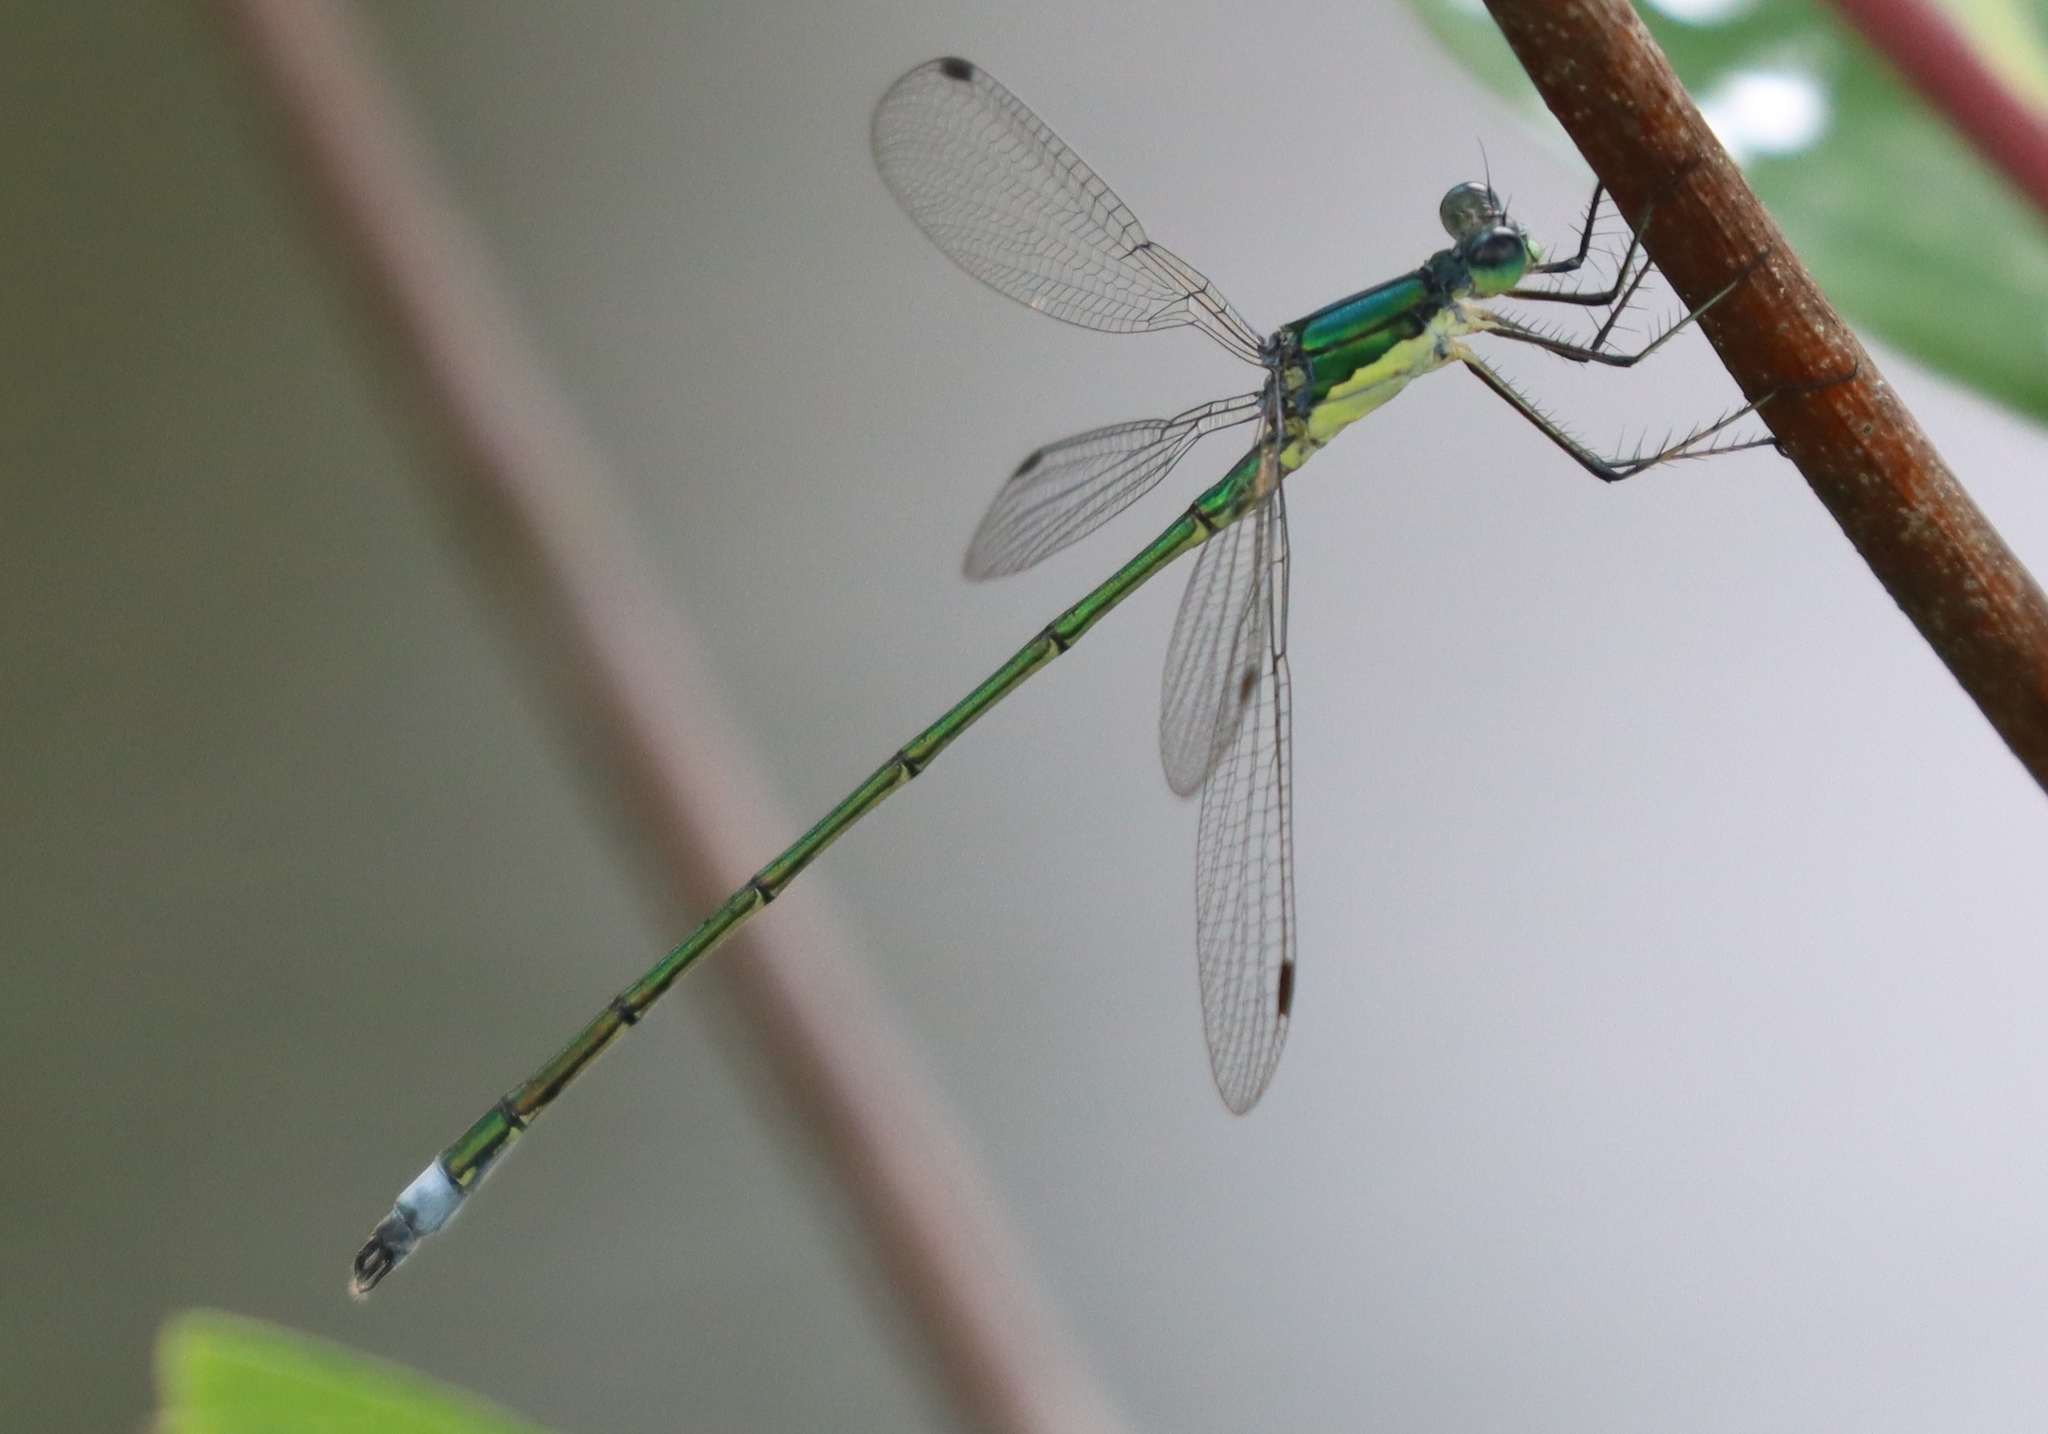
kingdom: Animalia
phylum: Arthropoda
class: Insecta
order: Odonata
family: Lestidae
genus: Lestes
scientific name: Lestes inaequalis
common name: Elegant spreadwing
